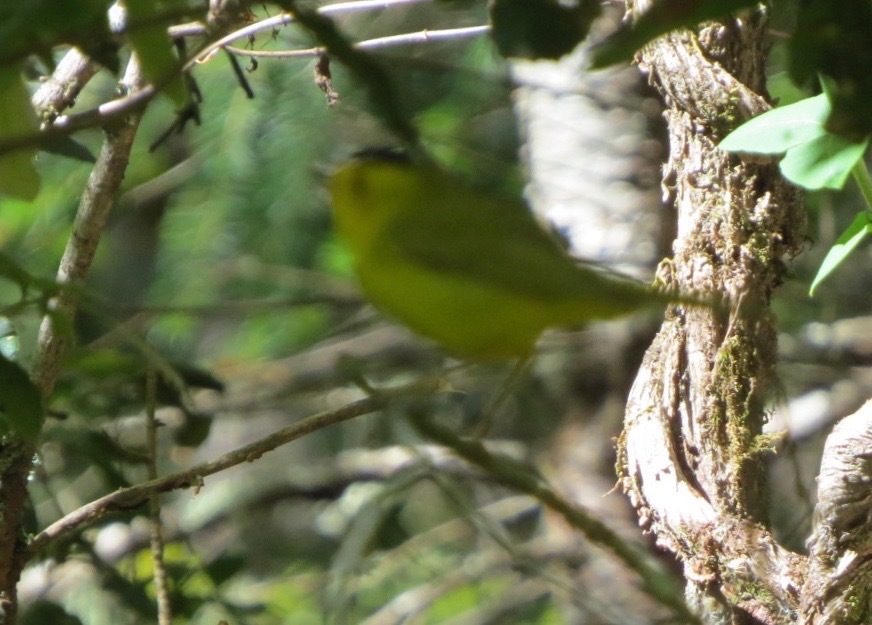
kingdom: Animalia
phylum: Chordata
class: Aves
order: Passeriformes
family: Parulidae
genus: Cardellina
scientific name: Cardellina pusilla
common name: Wilson's warbler
